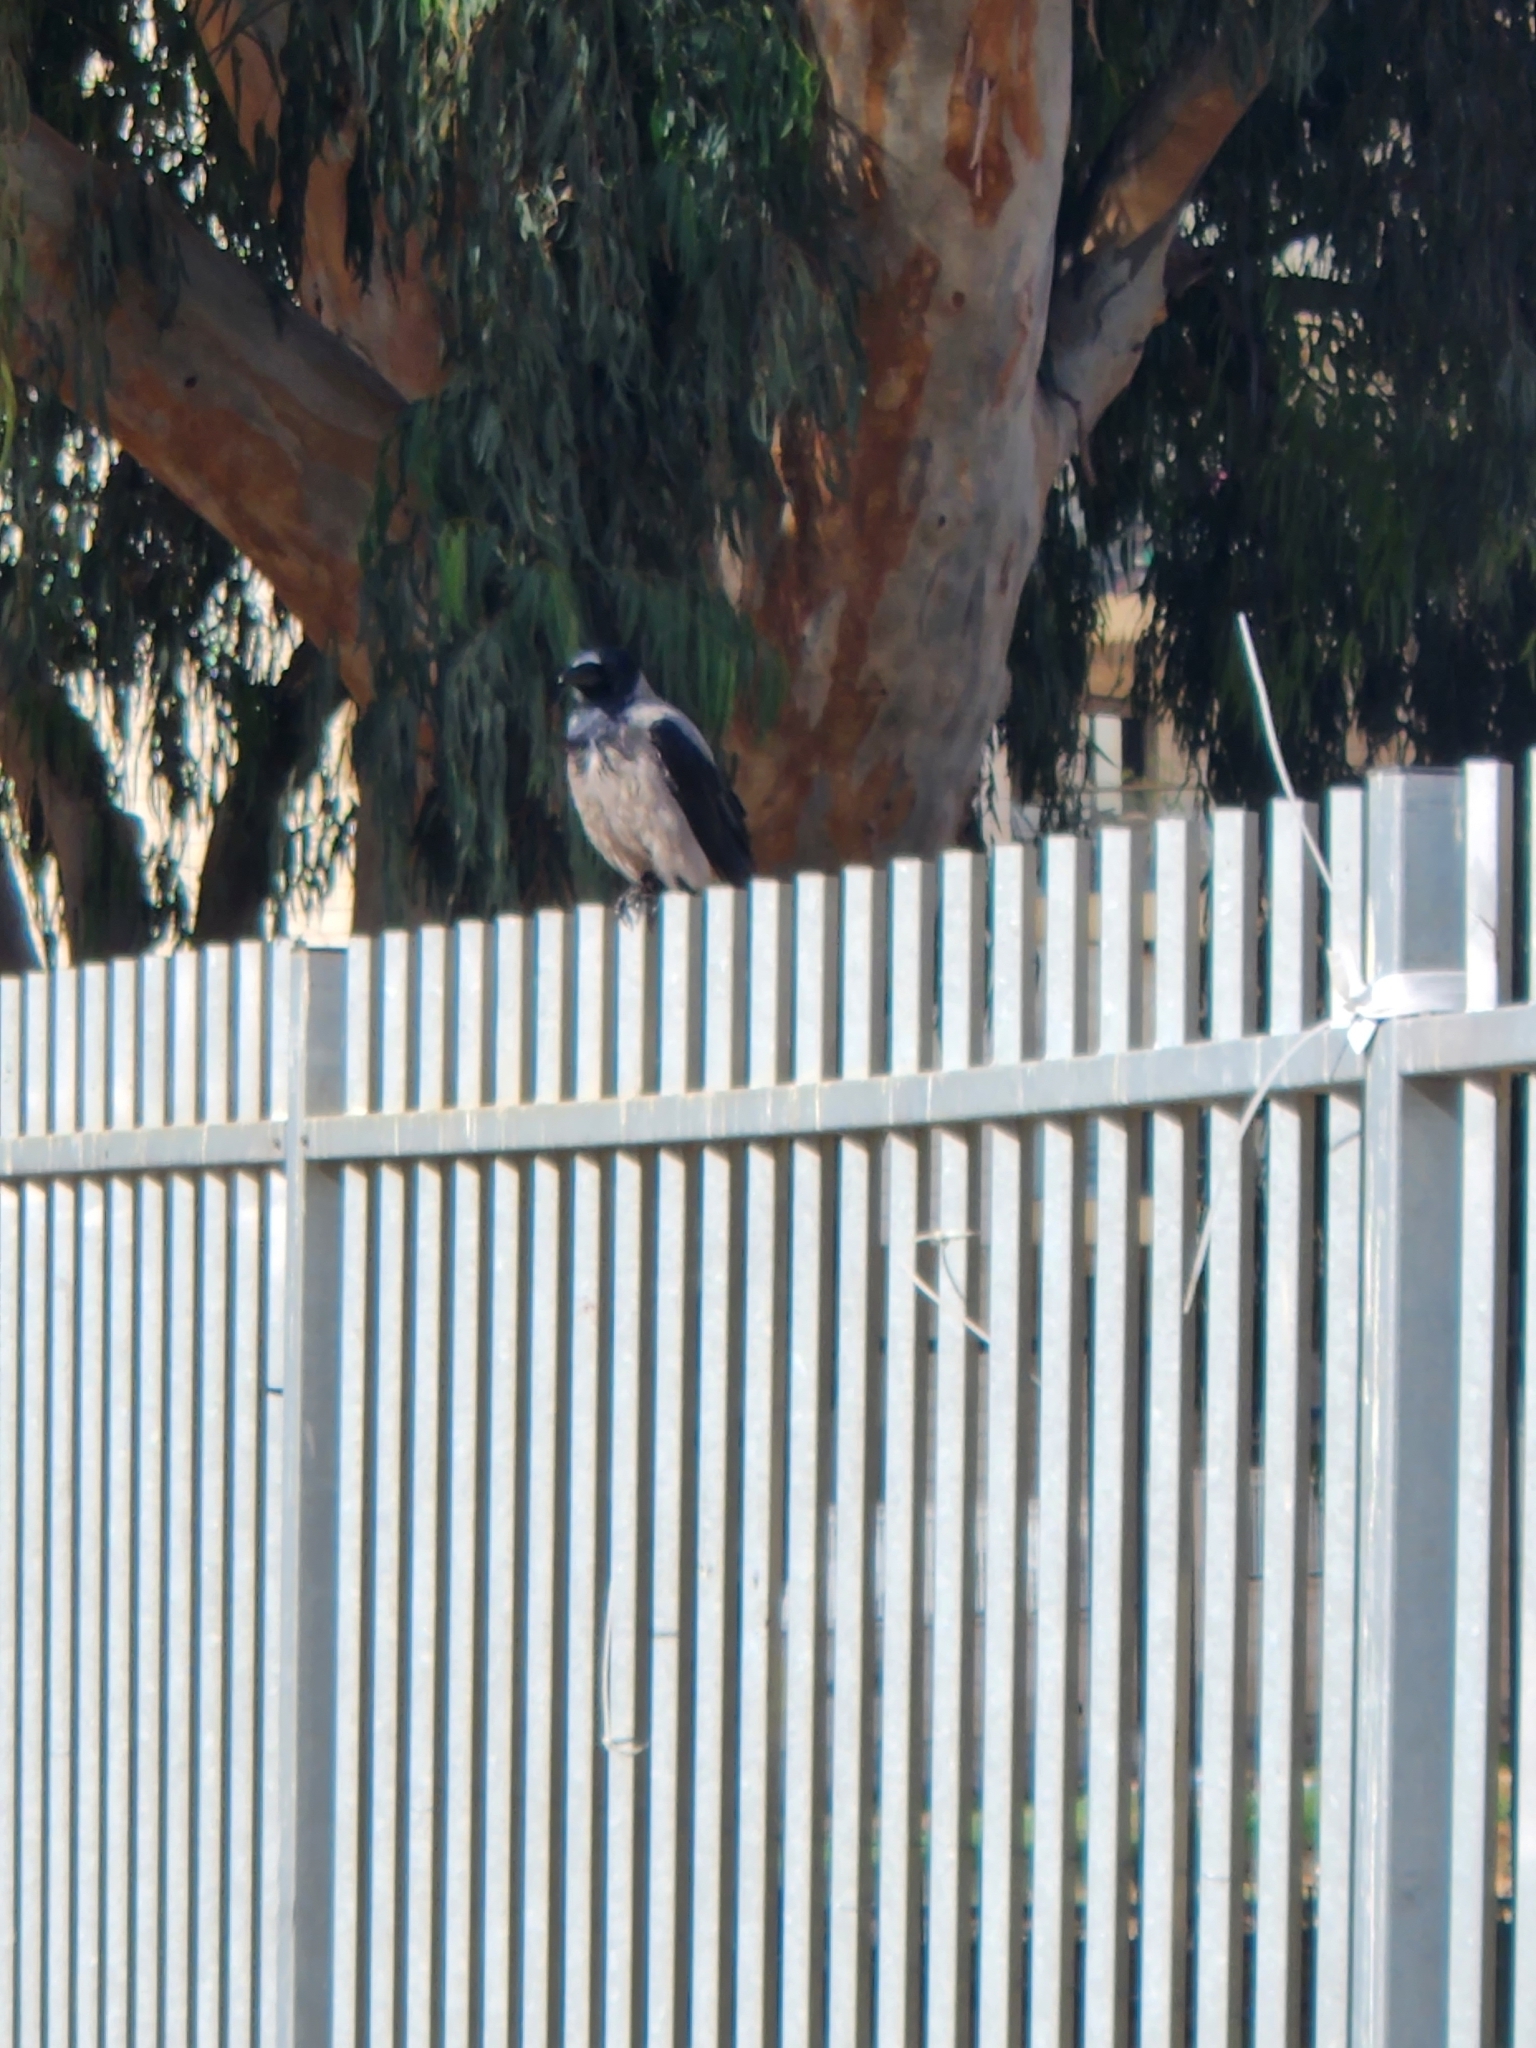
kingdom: Animalia
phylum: Chordata
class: Aves
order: Passeriformes
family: Corvidae
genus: Corvus
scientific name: Corvus cornix
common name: Hooded crow
